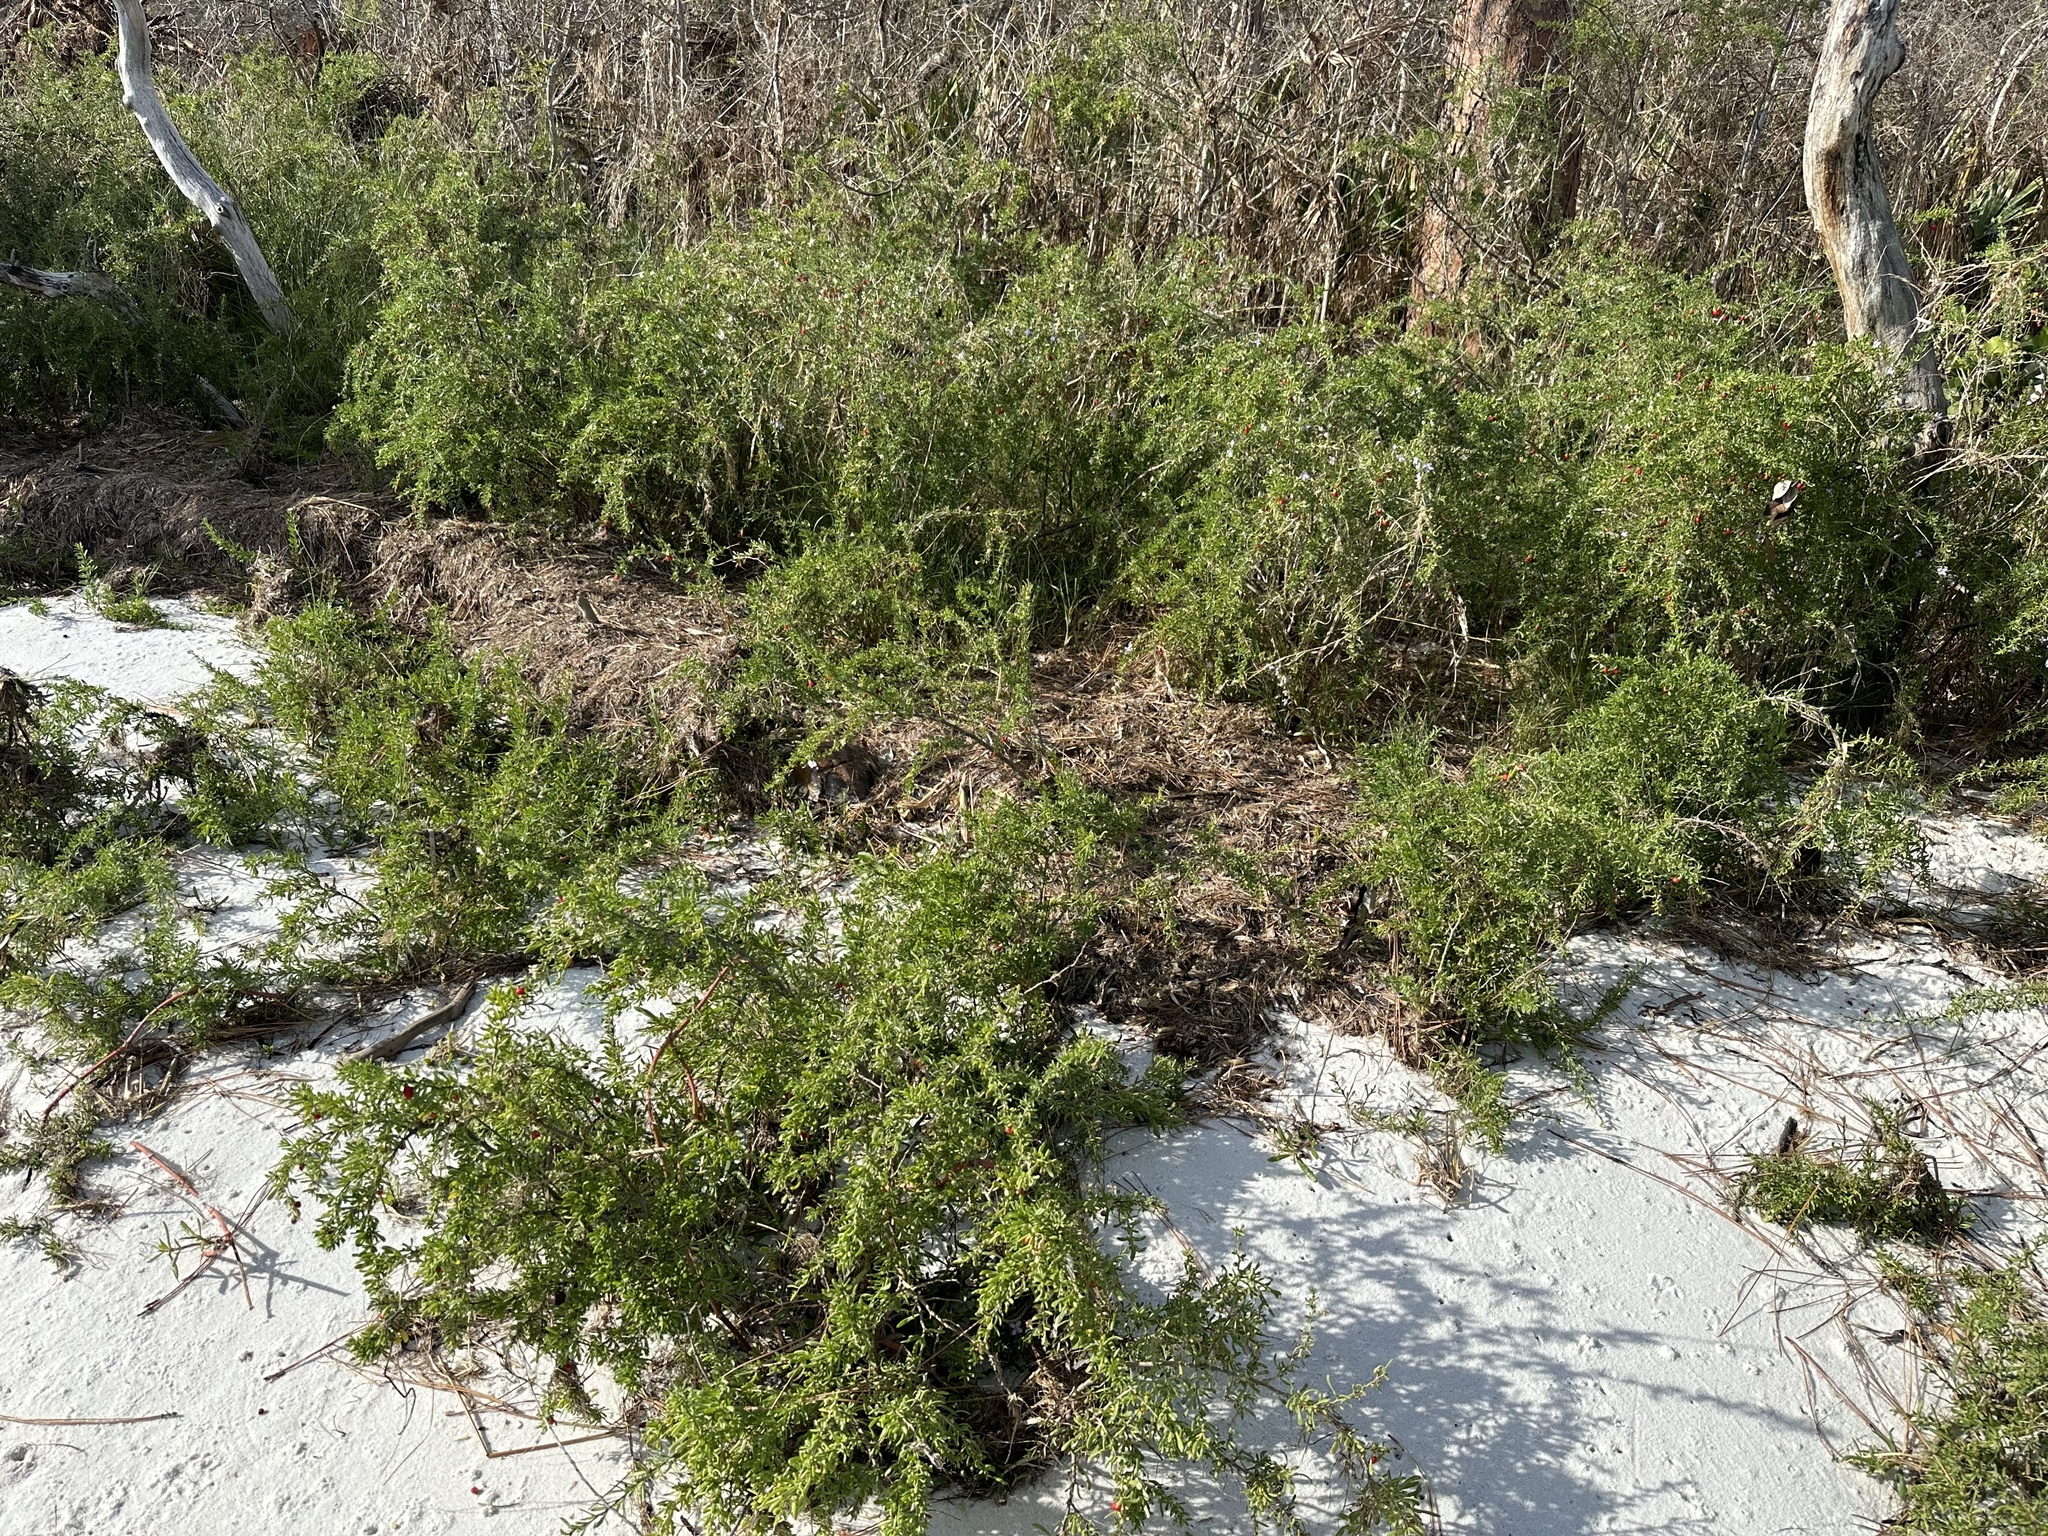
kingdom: Plantae
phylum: Tracheophyta
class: Magnoliopsida
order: Solanales
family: Solanaceae
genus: Lycium
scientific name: Lycium carolinianum
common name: Christmasberry
